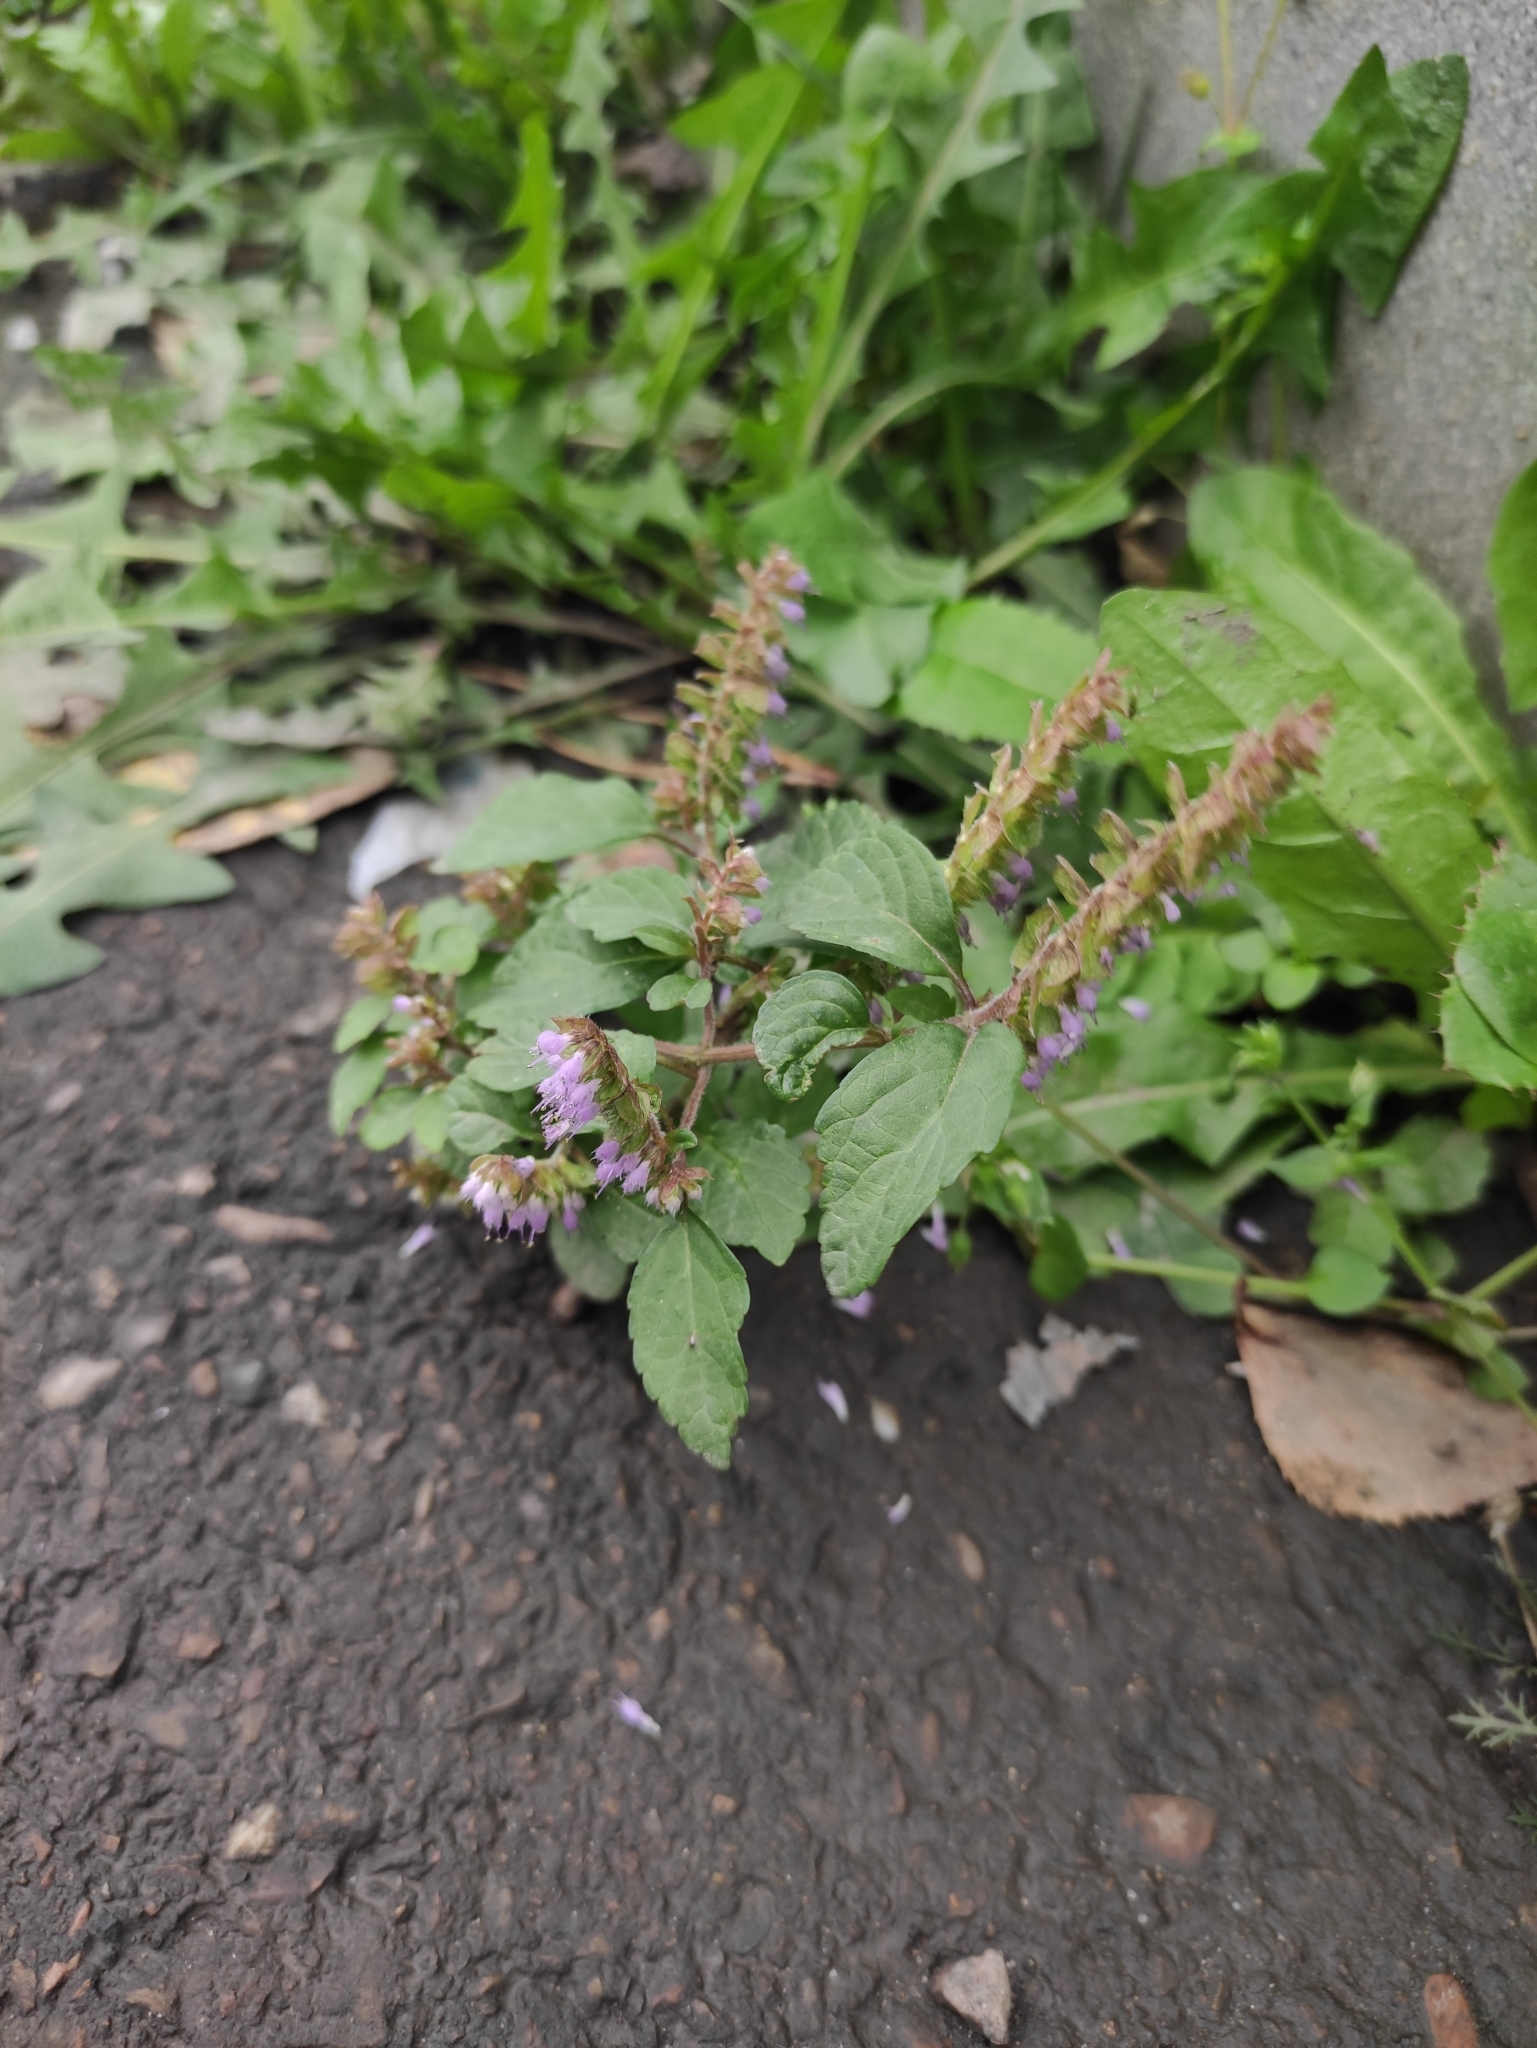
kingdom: Plantae
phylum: Tracheophyta
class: Magnoliopsida
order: Lamiales
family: Lamiaceae
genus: Elsholtzia
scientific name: Elsholtzia ciliata
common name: Ciliate elsholtzia
